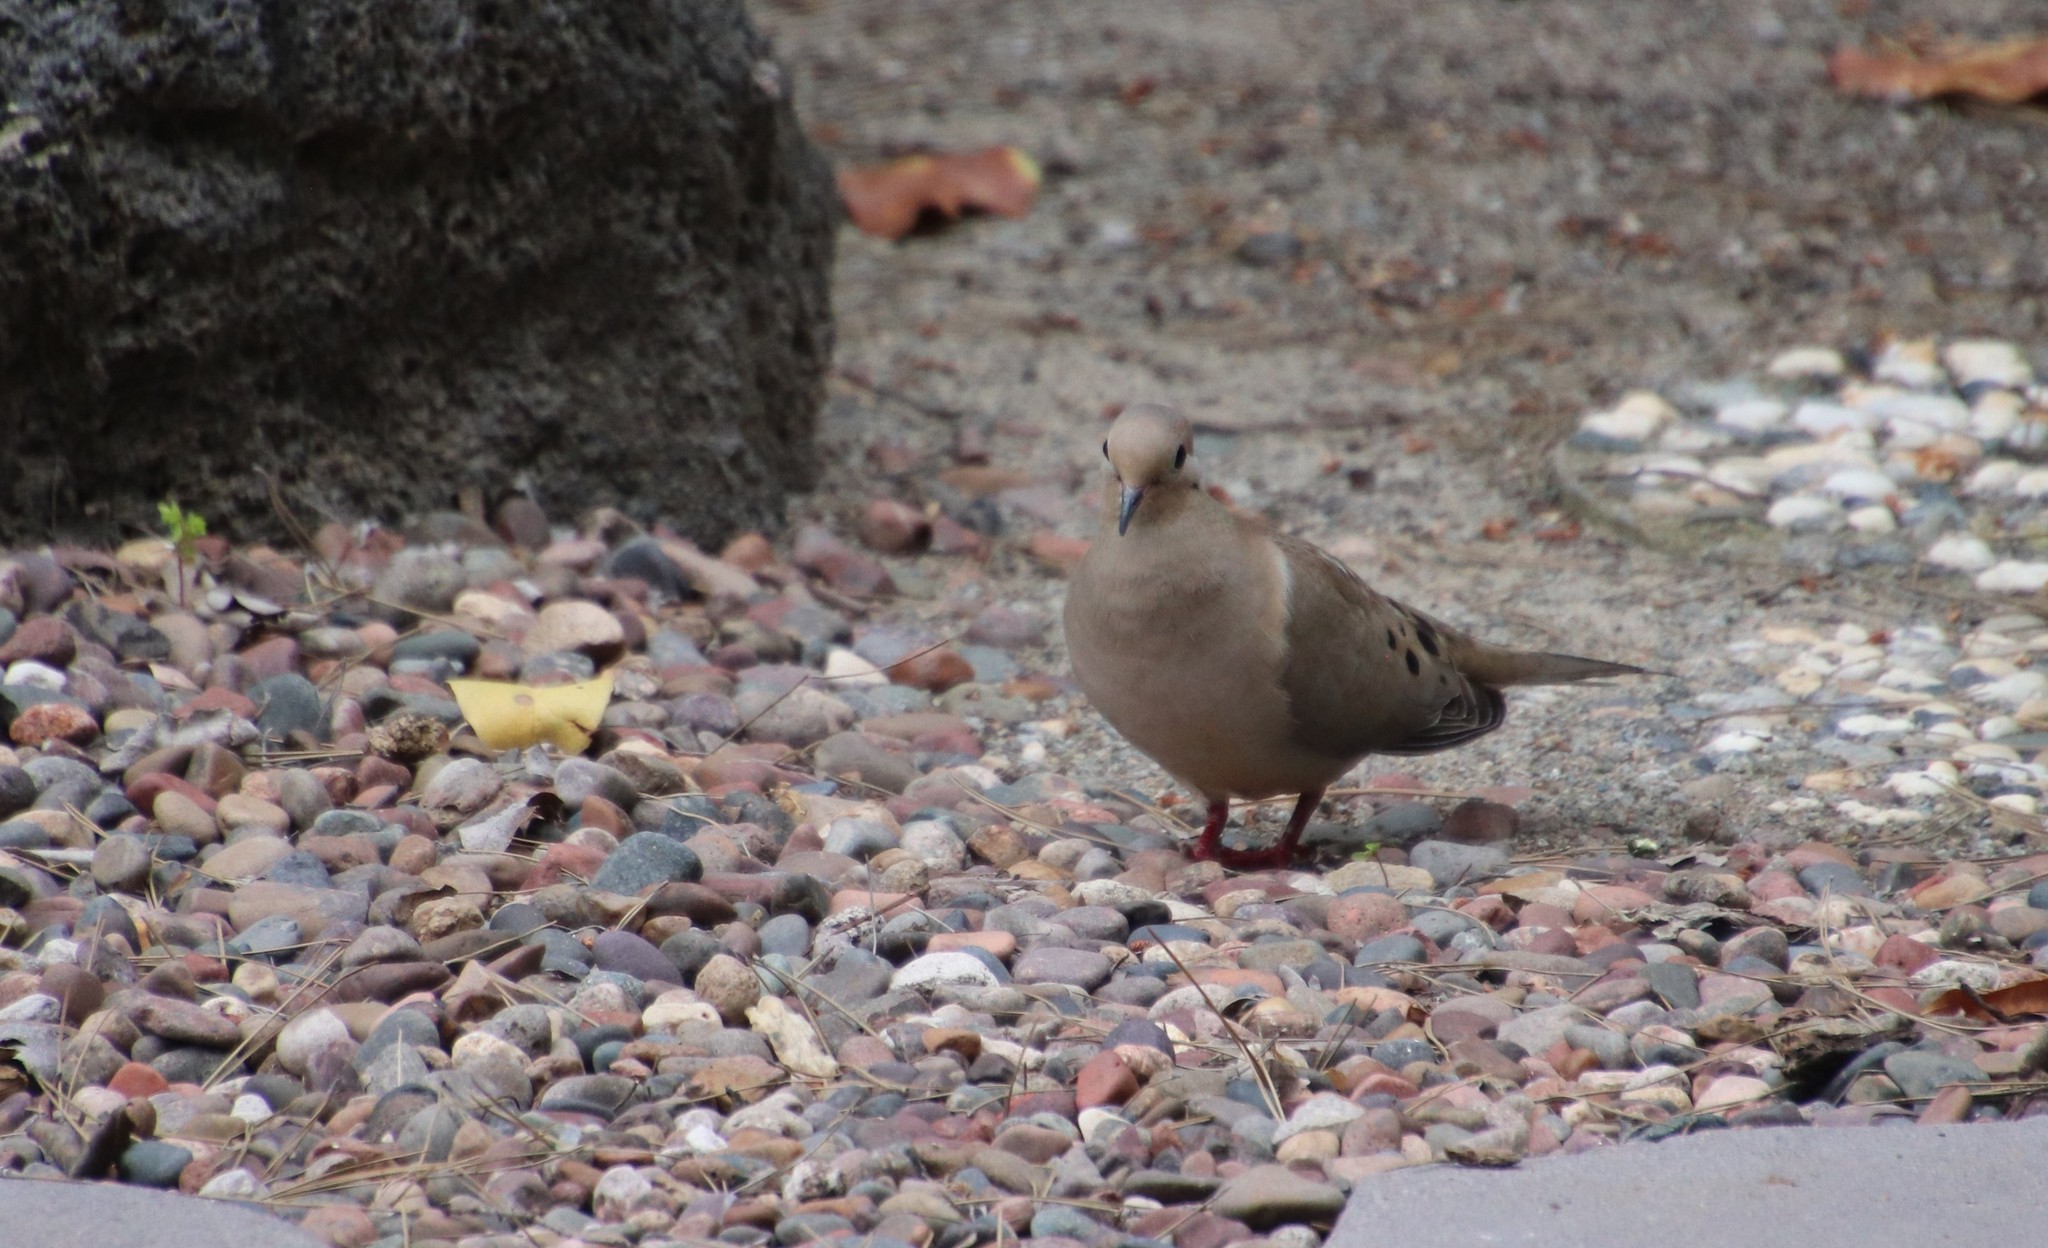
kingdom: Animalia
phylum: Chordata
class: Aves
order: Columbiformes
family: Columbidae
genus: Zenaida
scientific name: Zenaida macroura
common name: Mourning dove
